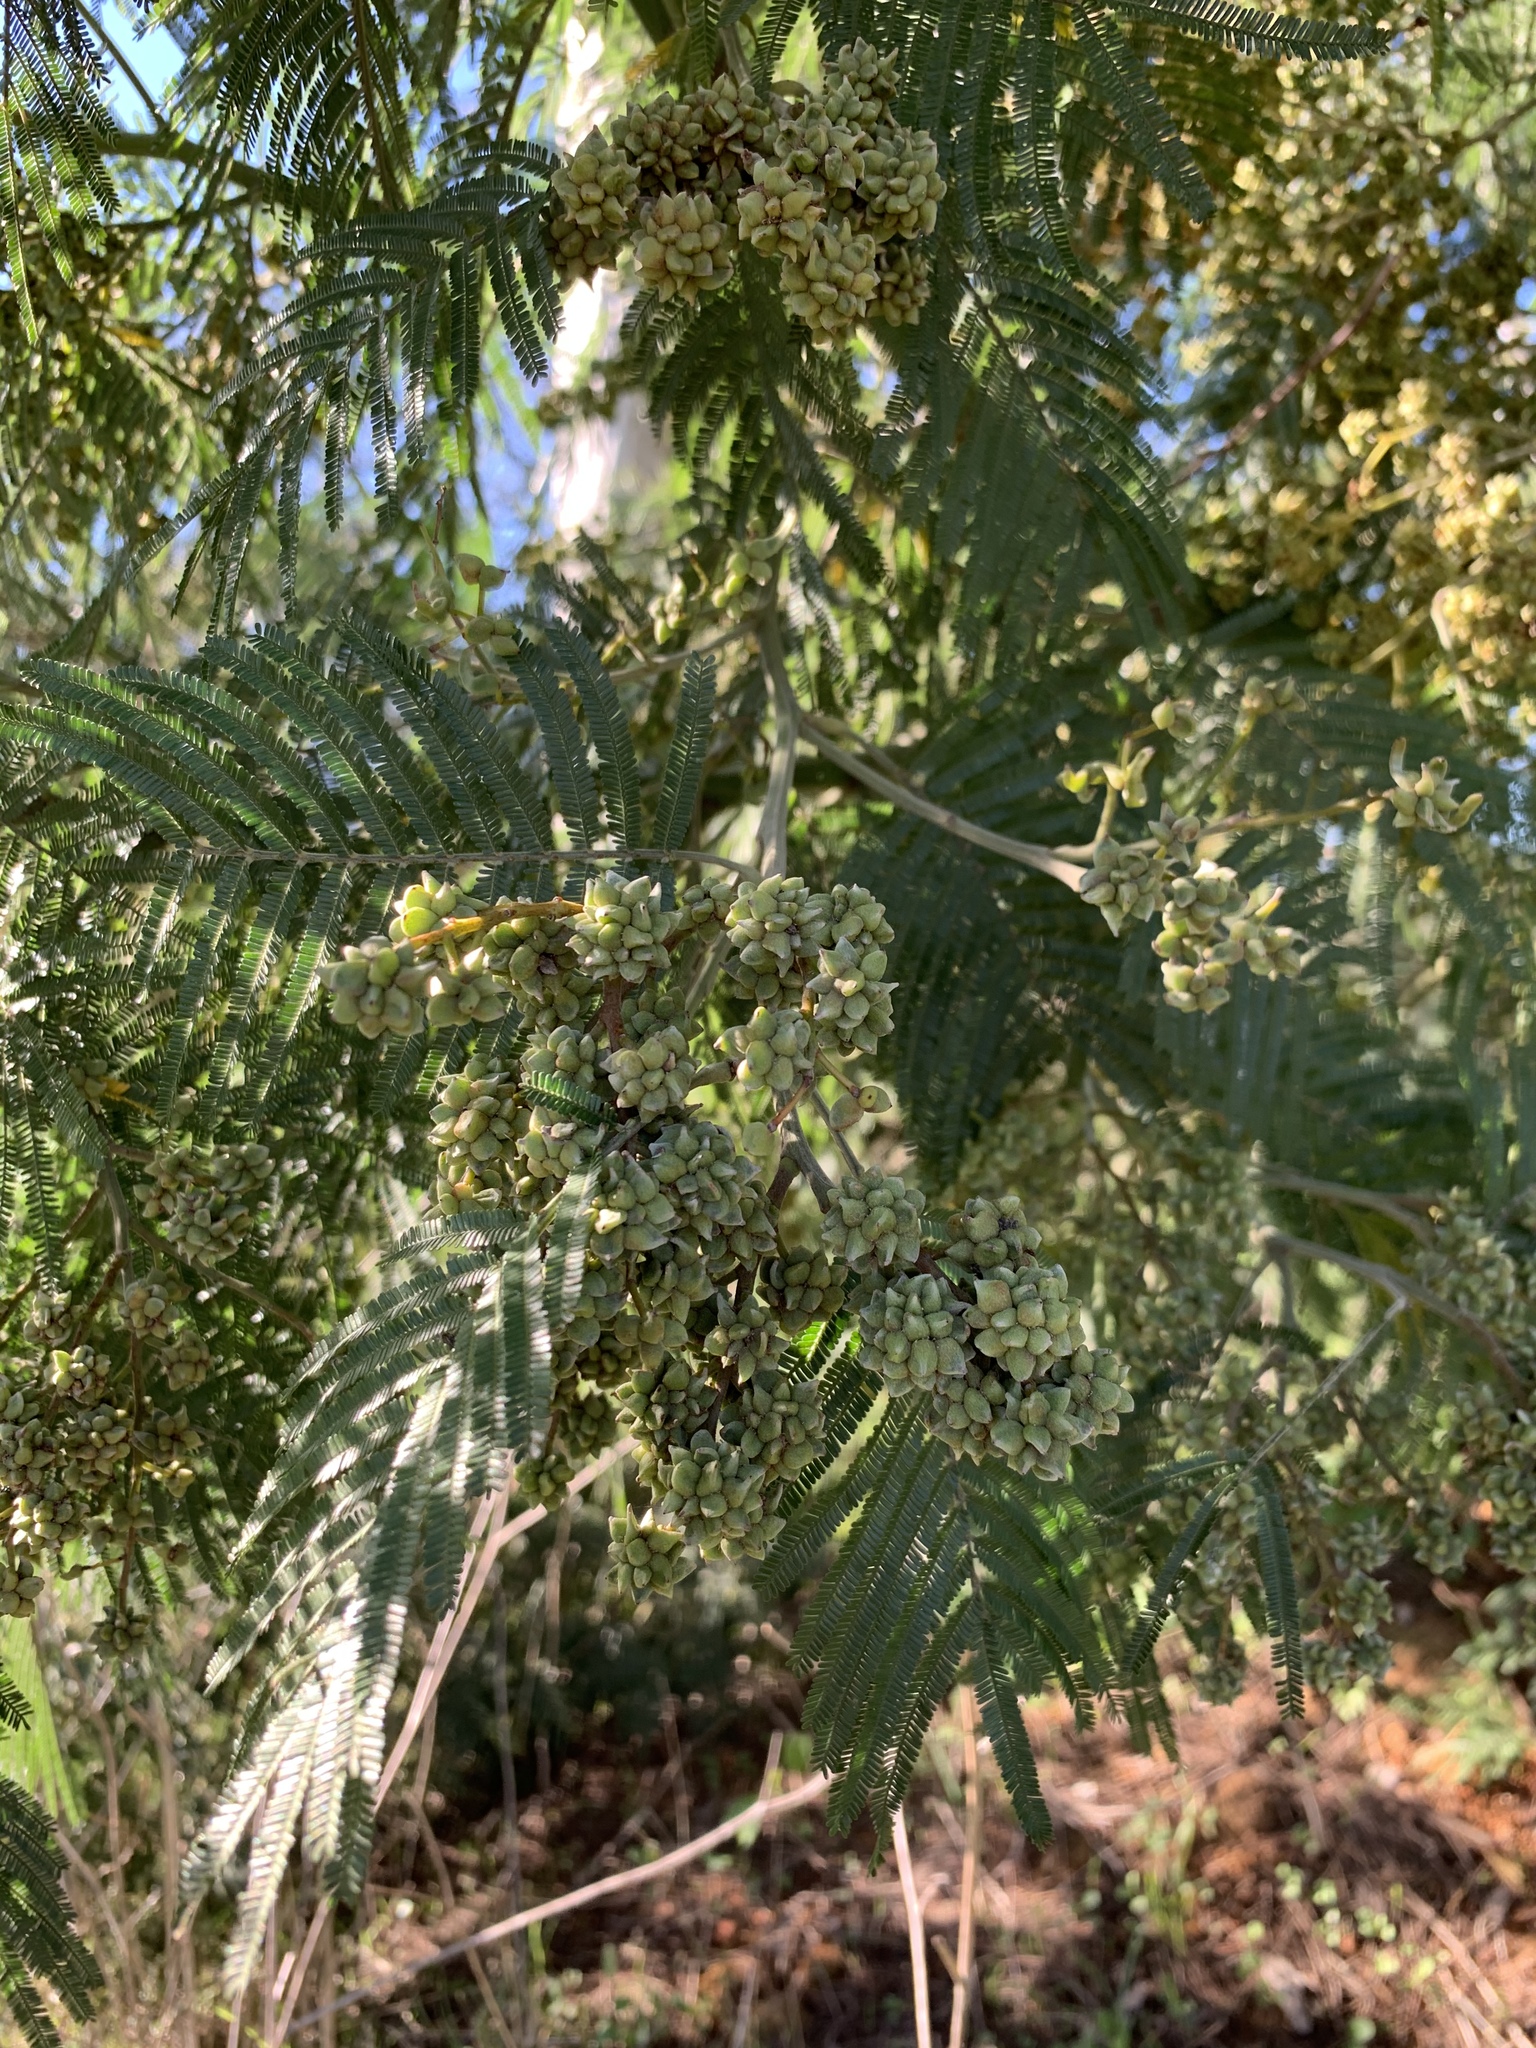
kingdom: Plantae
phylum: Tracheophyta
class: Magnoliopsida
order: Fabales
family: Fabaceae
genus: Acacia
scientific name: Acacia mearnsii
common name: Black wattle
